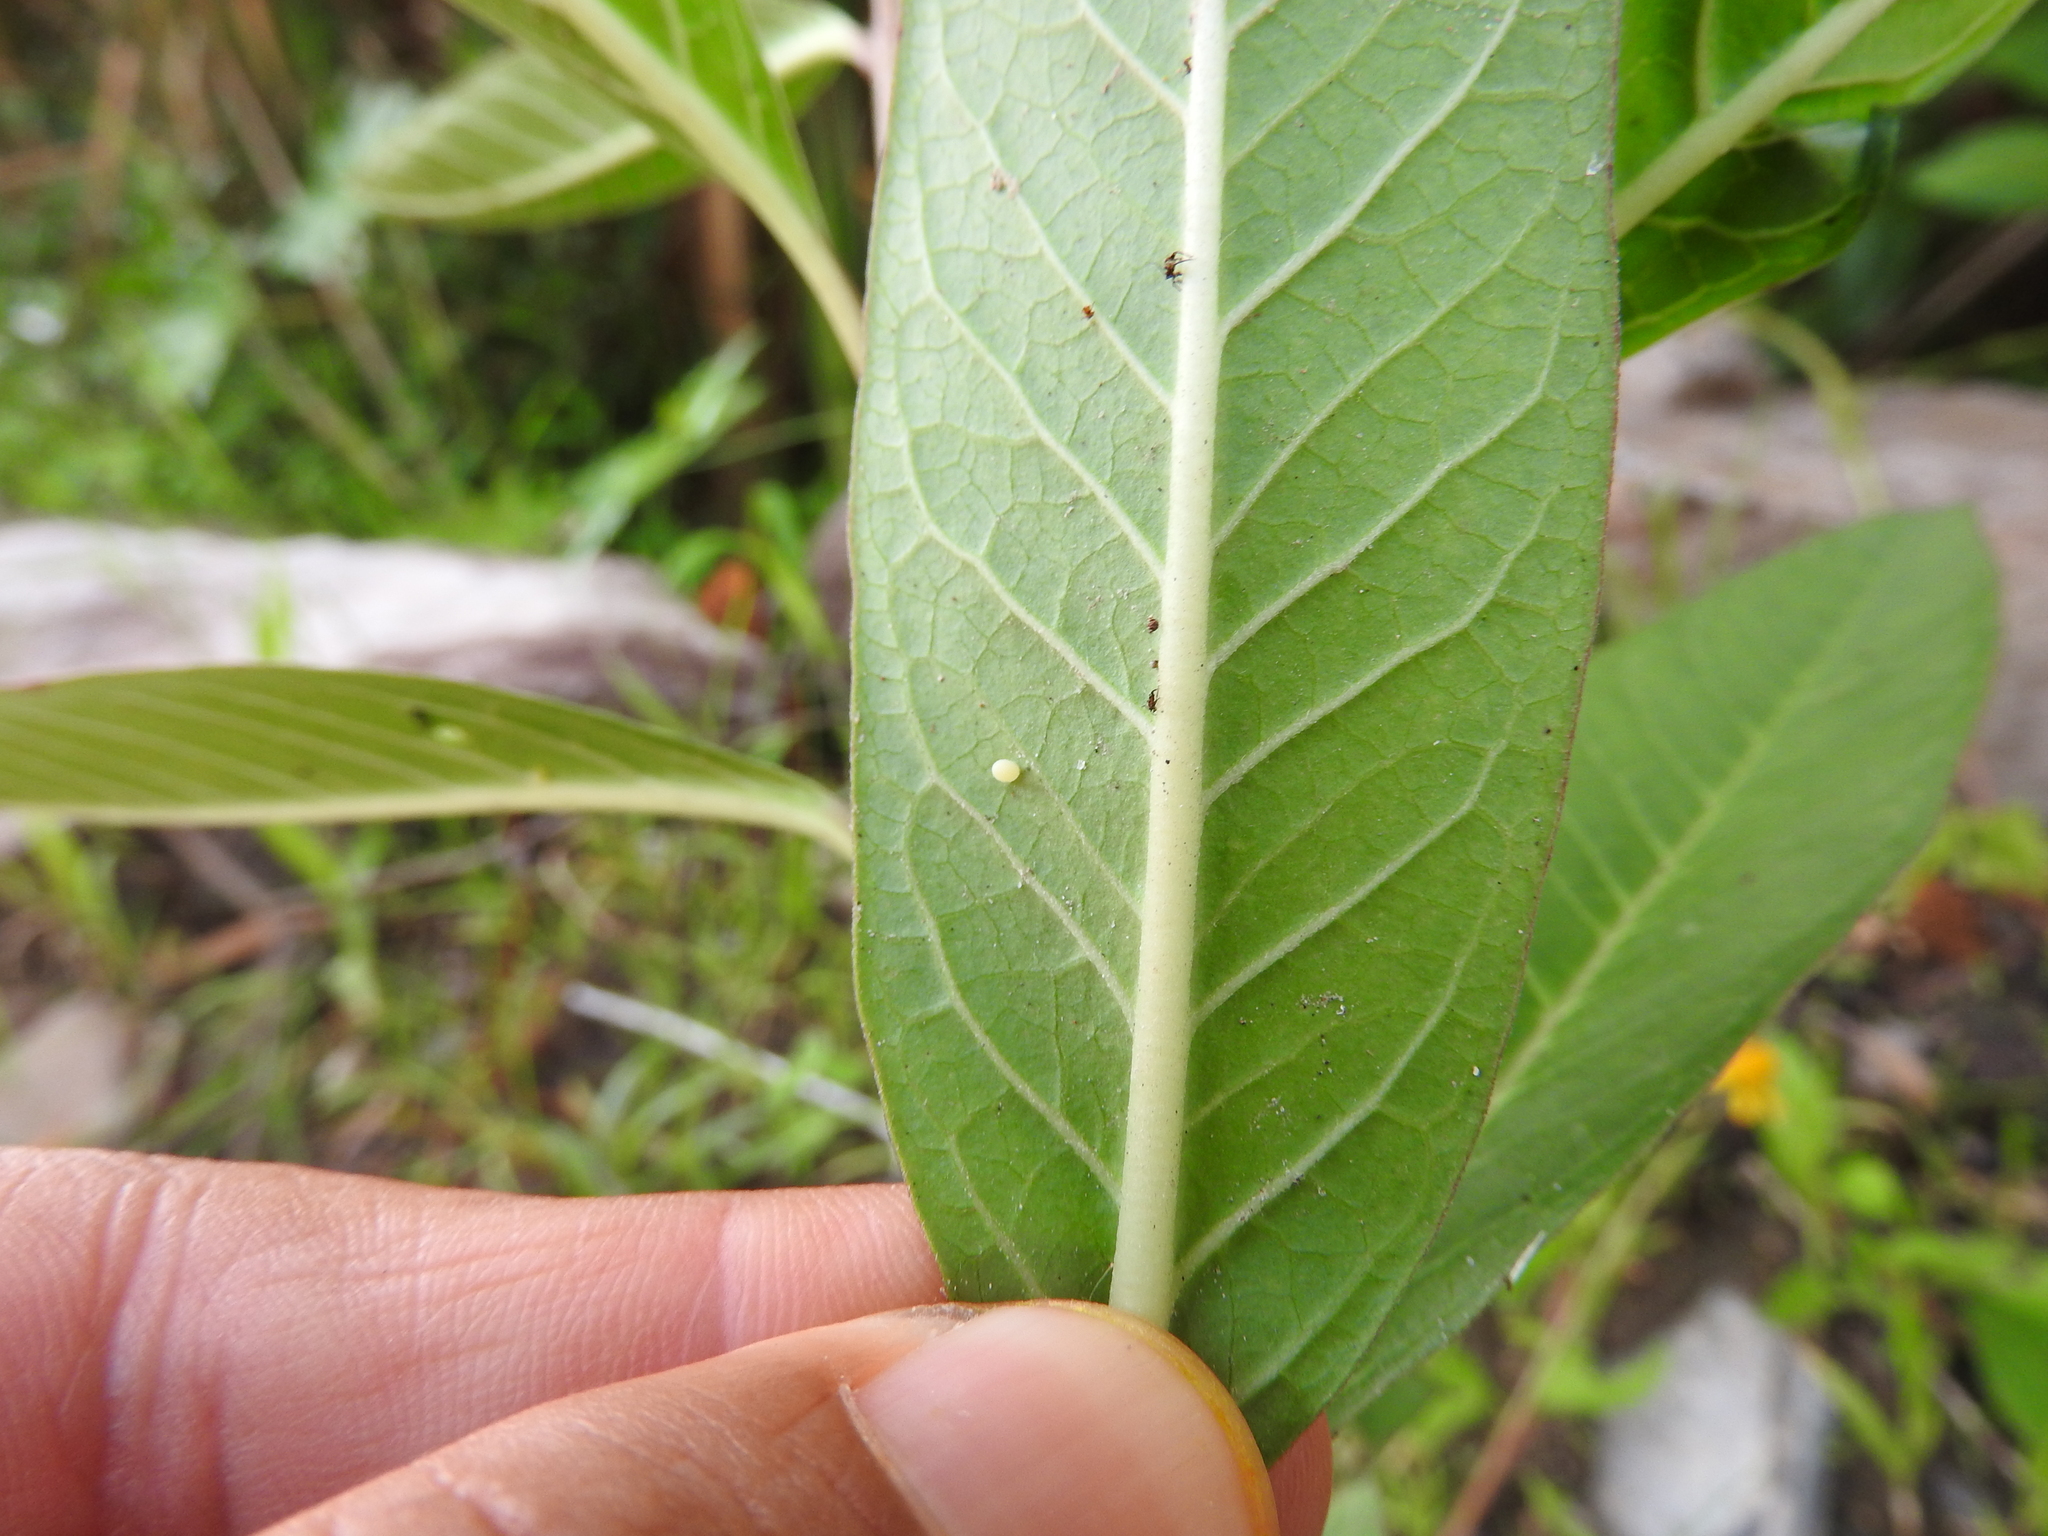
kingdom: Animalia
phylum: Arthropoda
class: Insecta
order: Lepidoptera
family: Nymphalidae
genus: Danaus
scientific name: Danaus plexippus
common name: Monarch
